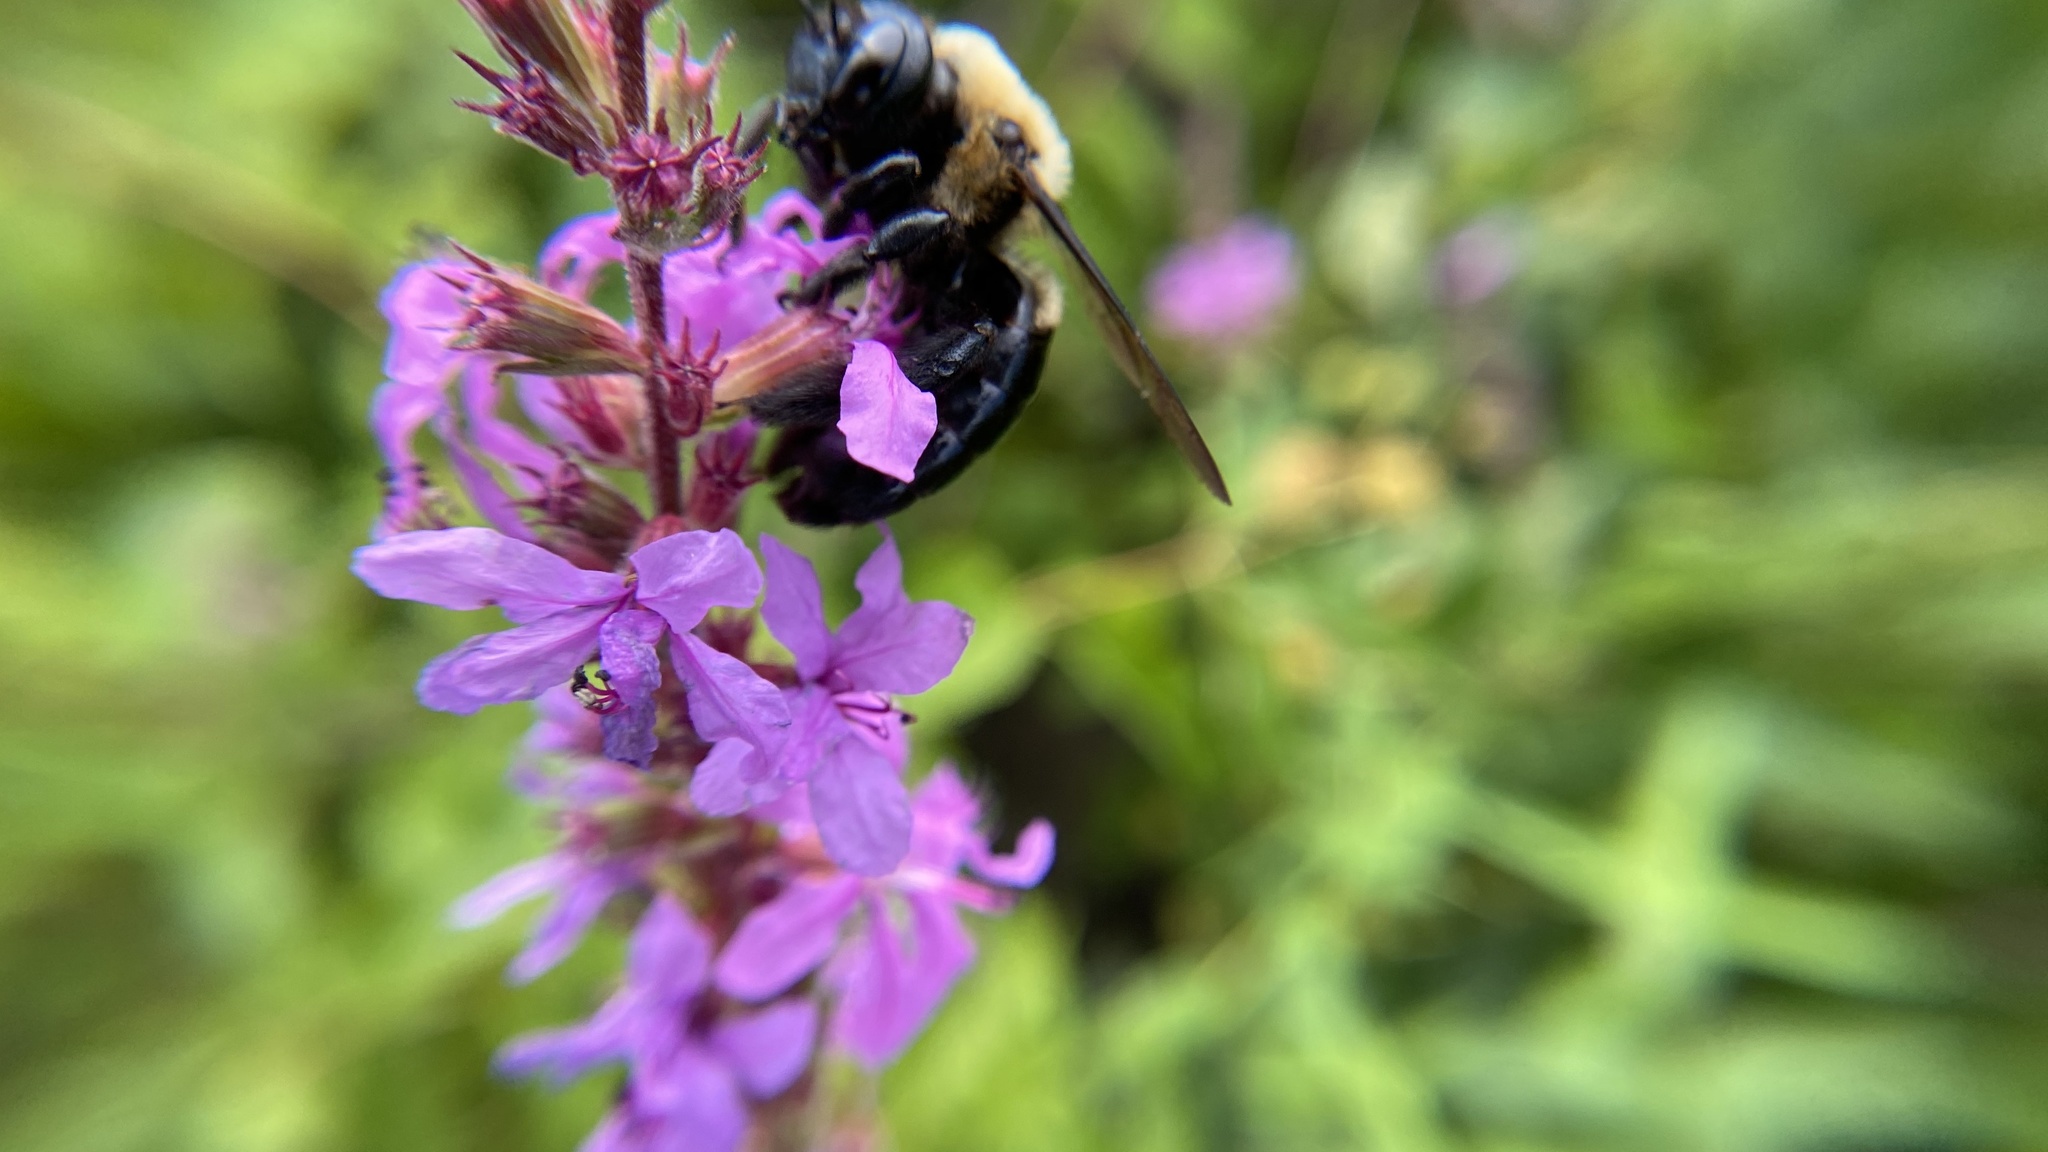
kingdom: Animalia
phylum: Arthropoda
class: Insecta
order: Hymenoptera
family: Apidae
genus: Xylocopa
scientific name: Xylocopa virginica
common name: Carpenter bee
